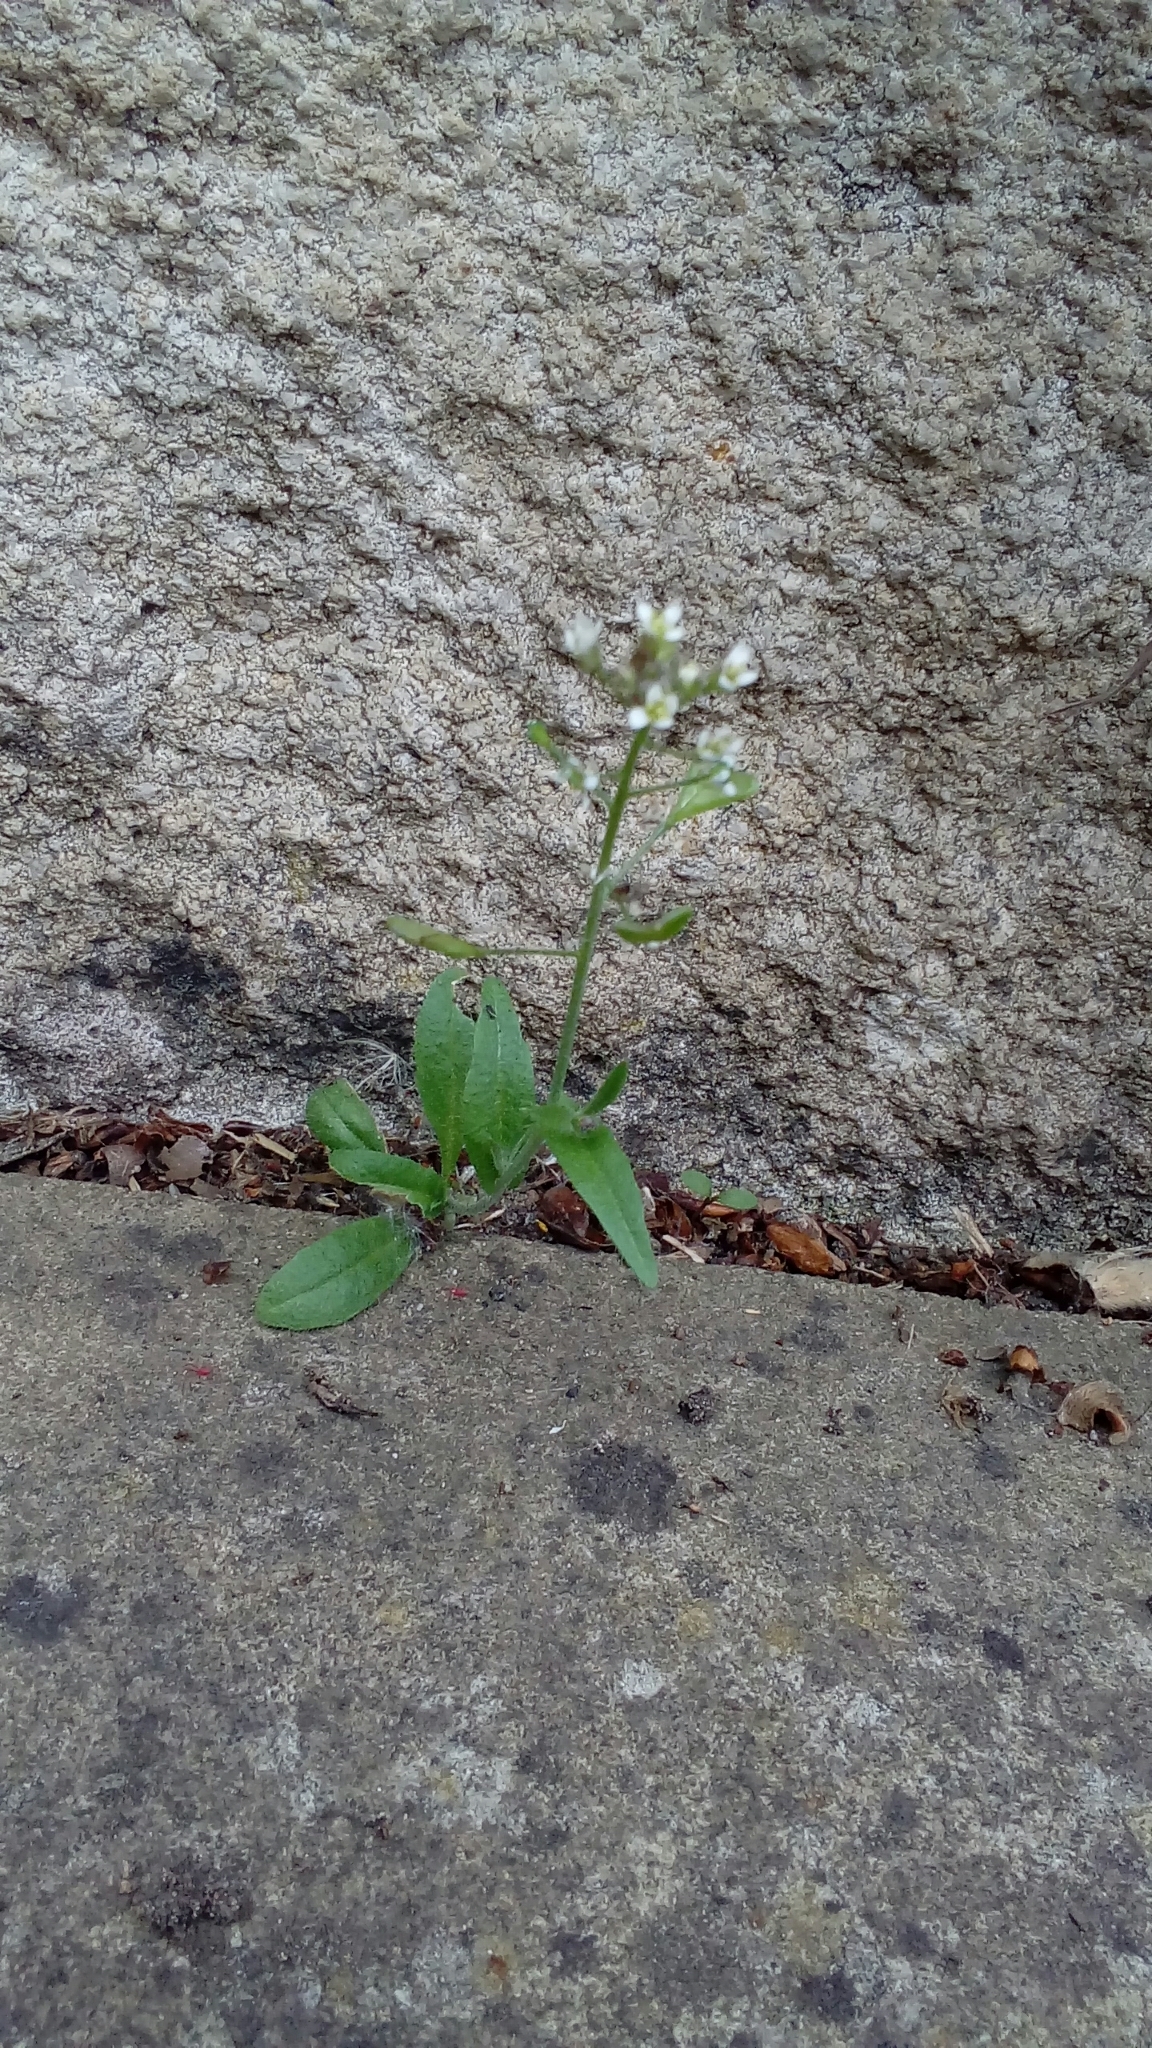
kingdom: Plantae
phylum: Tracheophyta
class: Magnoliopsida
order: Brassicales
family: Brassicaceae
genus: Capsella
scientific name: Capsella bursa-pastoris
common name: Shepherd's purse
